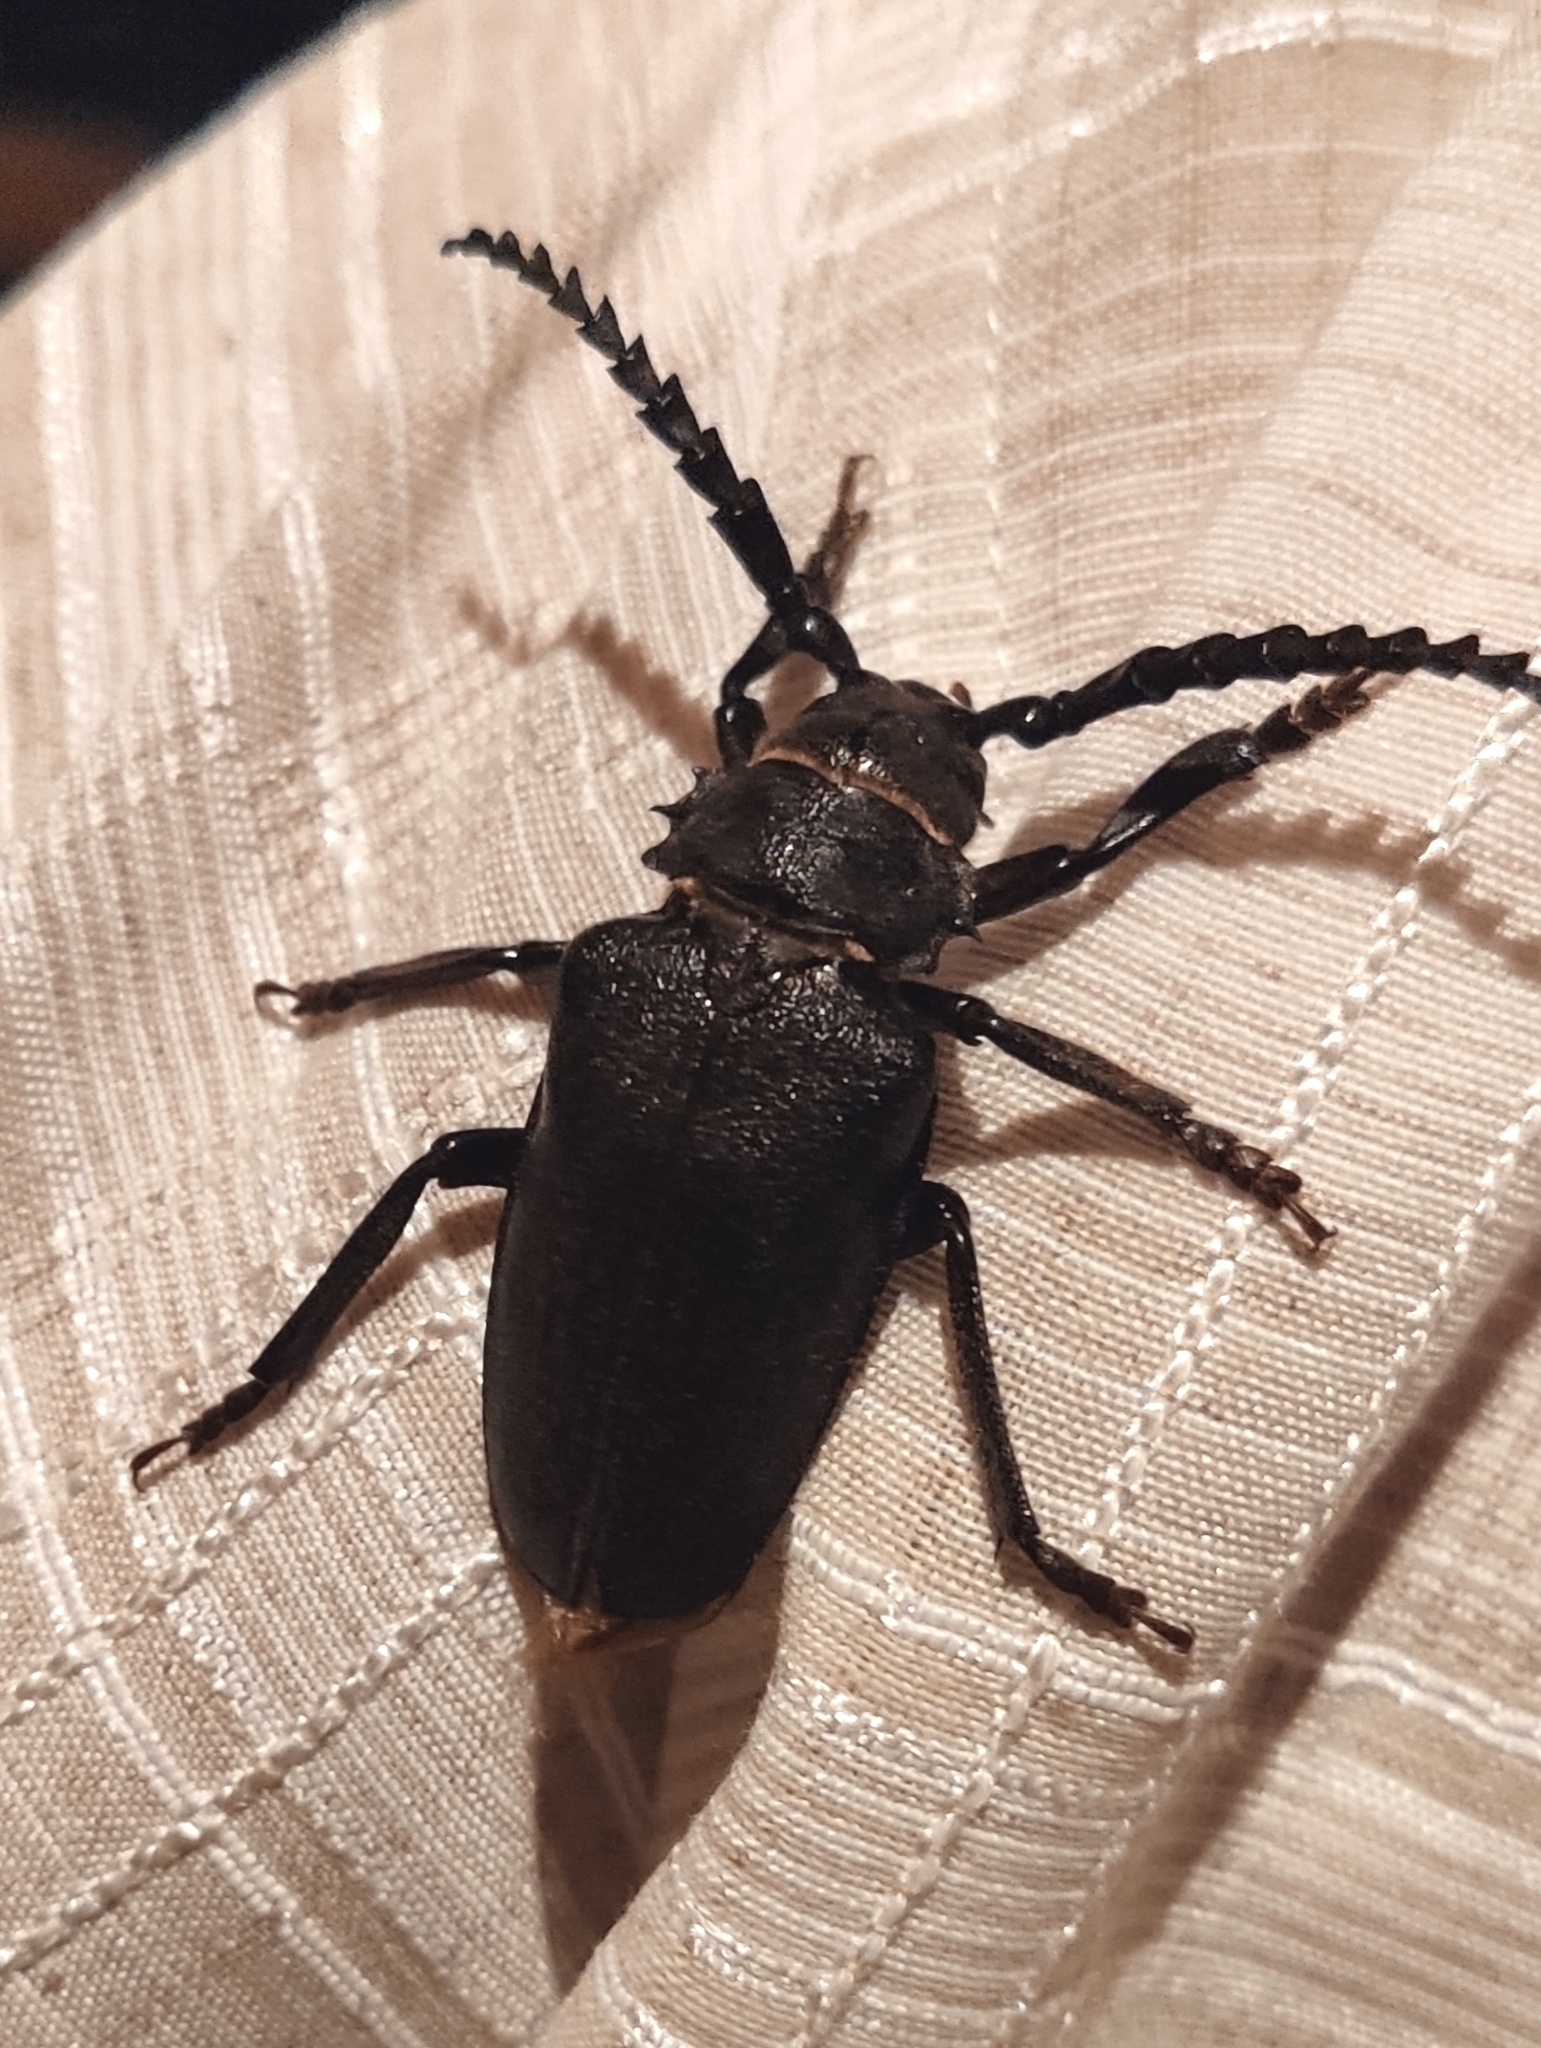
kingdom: Animalia
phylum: Arthropoda
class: Insecta
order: Coleoptera
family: Cerambycidae
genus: Prionus
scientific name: Prionus coriarius
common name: Tanner beetle
